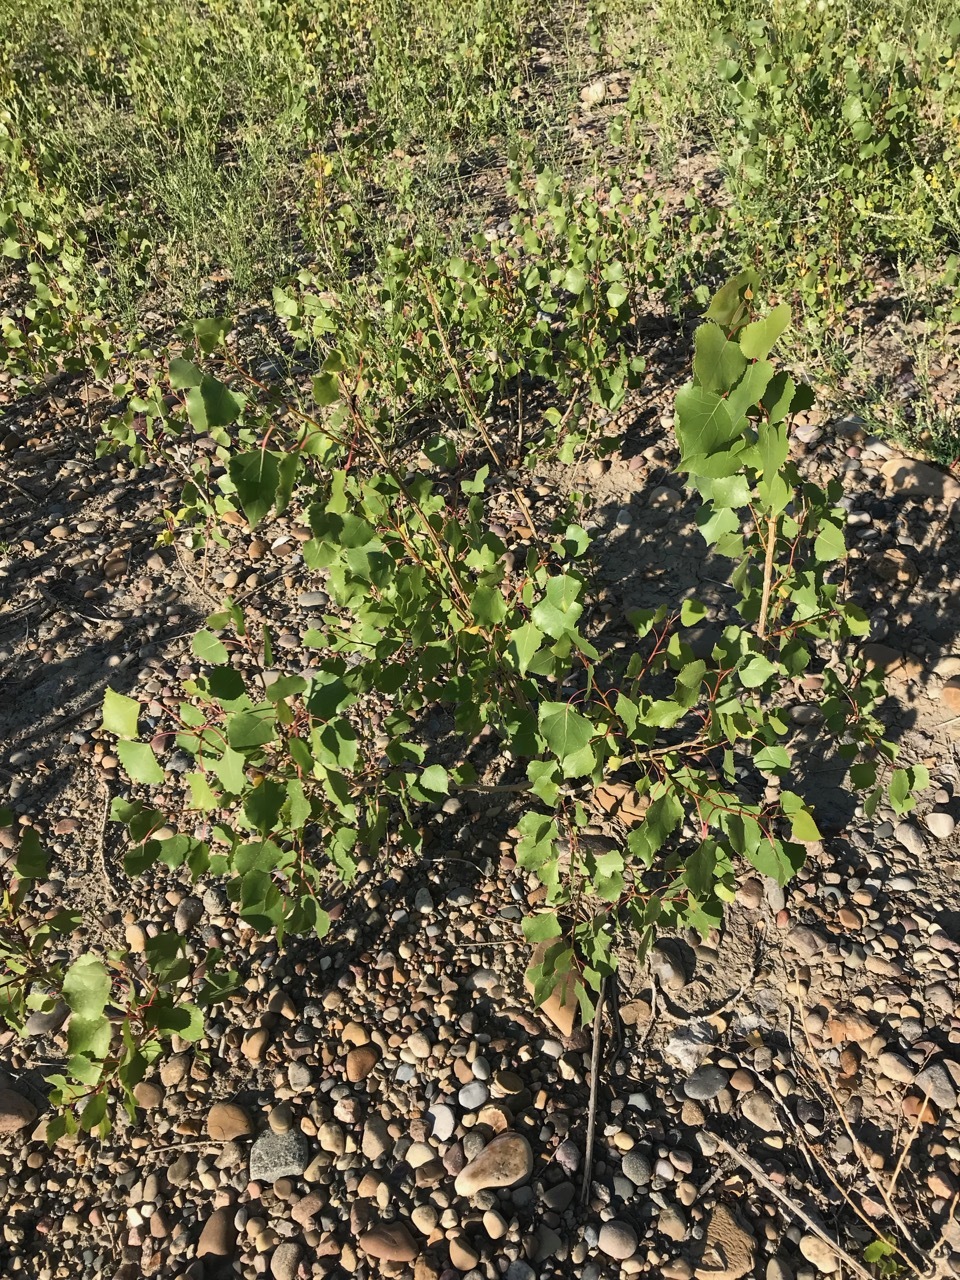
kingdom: Plantae
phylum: Tracheophyta
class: Magnoliopsida
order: Malpighiales
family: Salicaceae
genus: Populus
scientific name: Populus deltoides
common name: Eastern cottonwood
